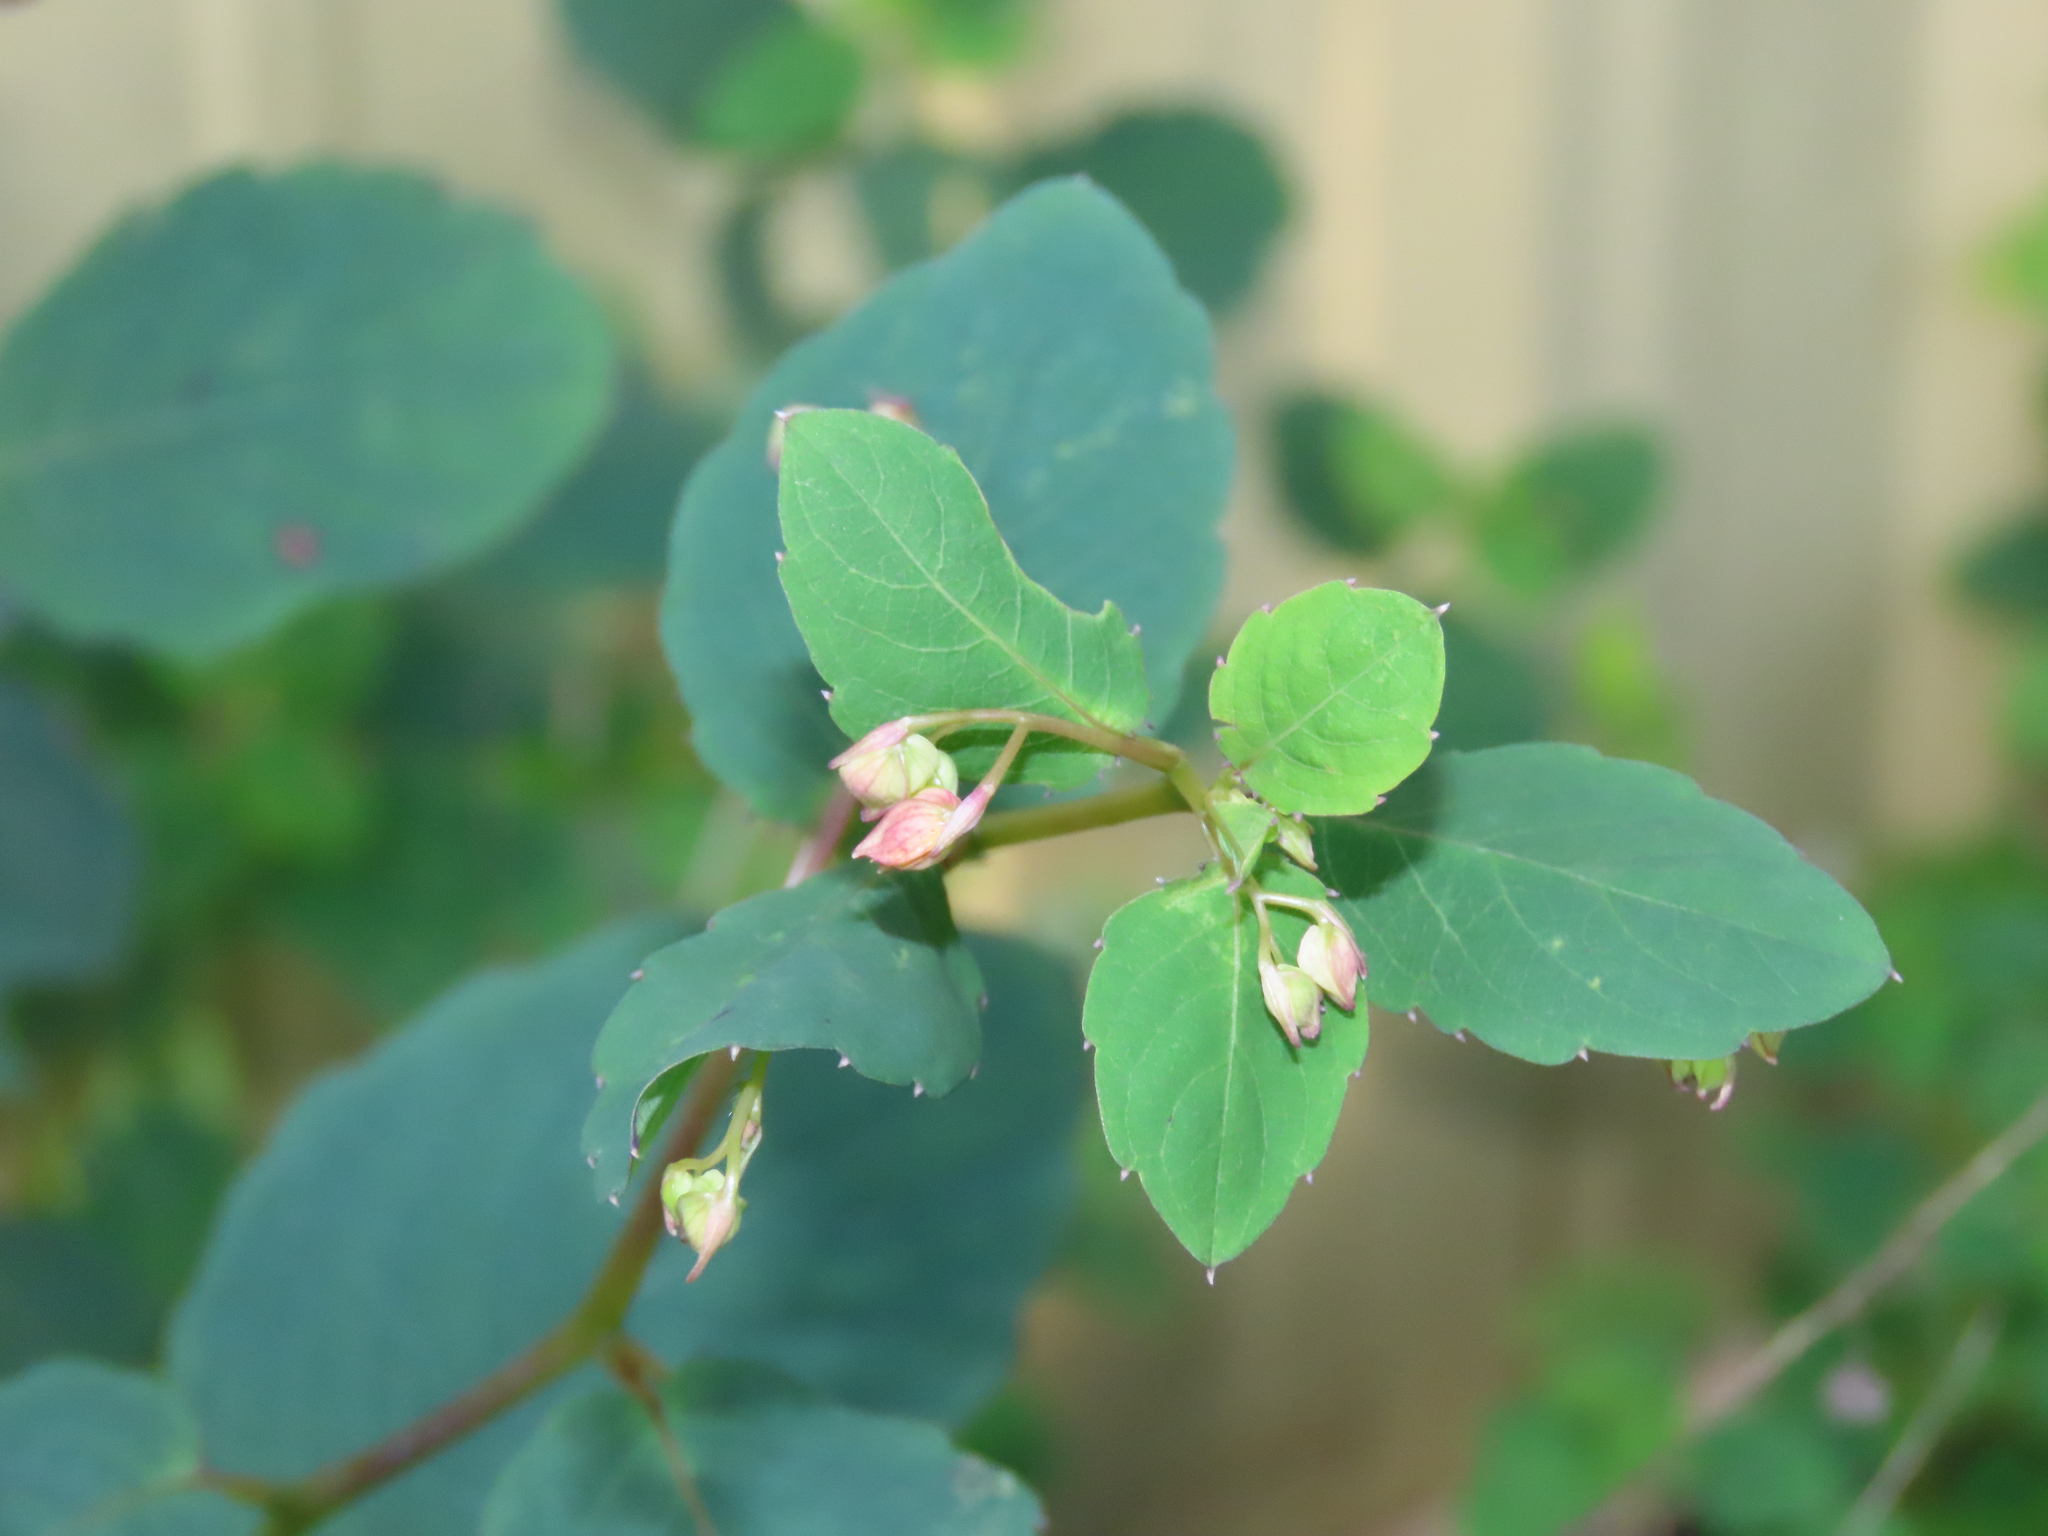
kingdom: Plantae
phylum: Tracheophyta
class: Magnoliopsida
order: Ericales
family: Balsaminaceae
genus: Impatiens
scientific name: Impatiens capensis
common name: Orange balsam
